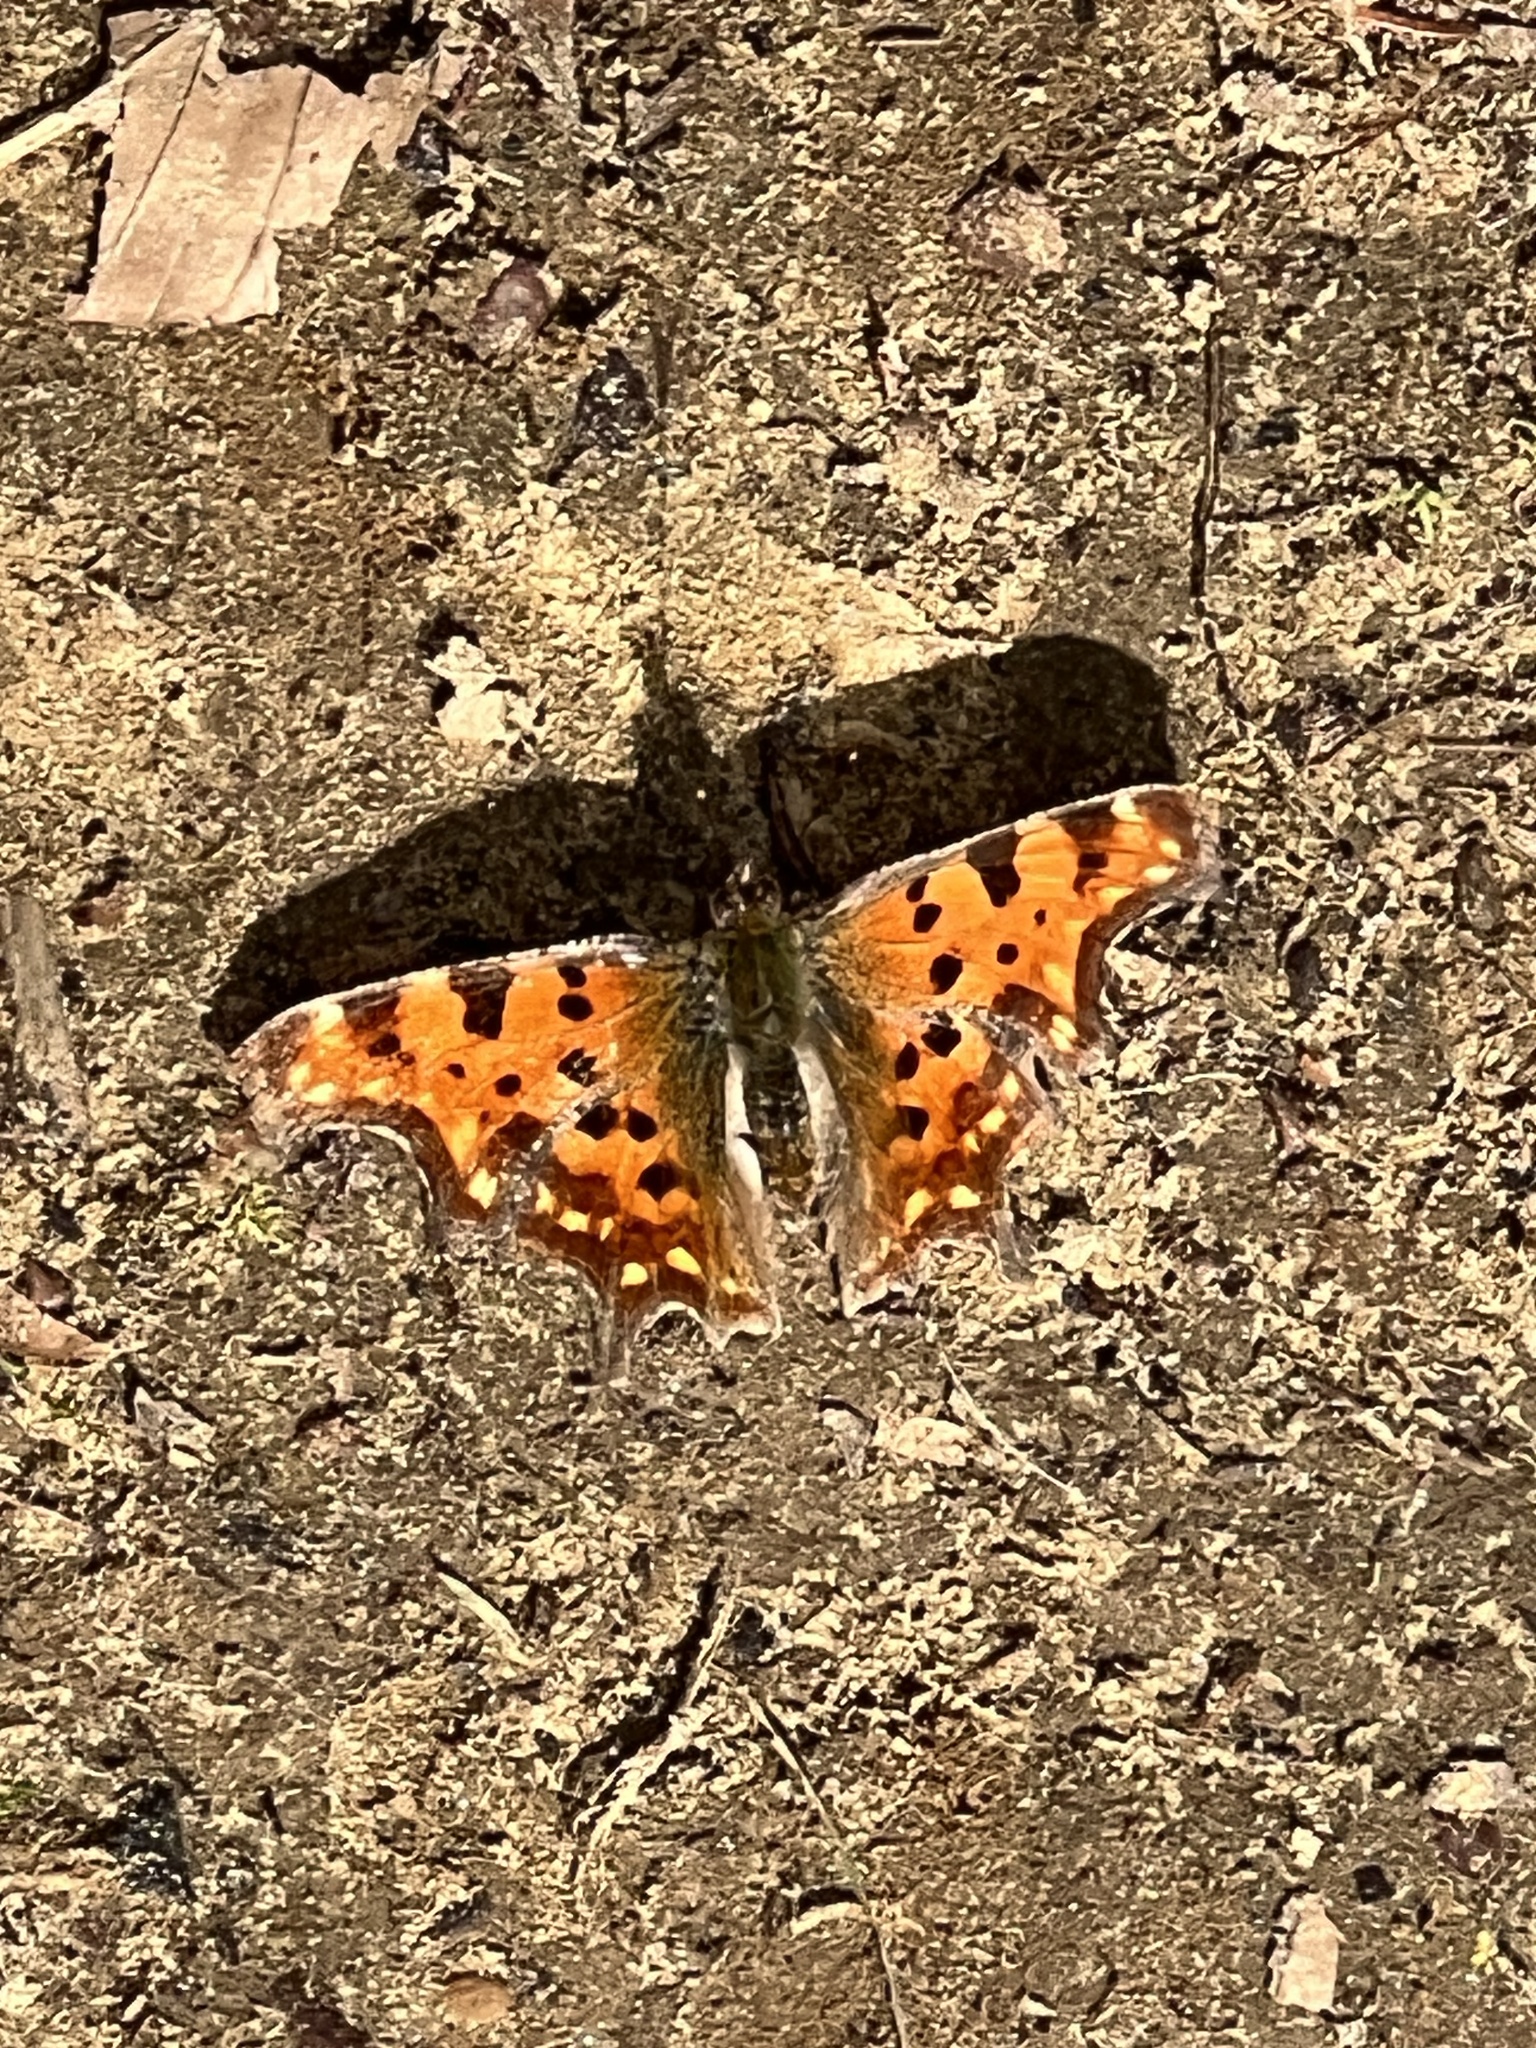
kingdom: Animalia
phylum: Arthropoda
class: Insecta
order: Lepidoptera
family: Nymphalidae
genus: Polygonia
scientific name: Polygonia c-album
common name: Comma
